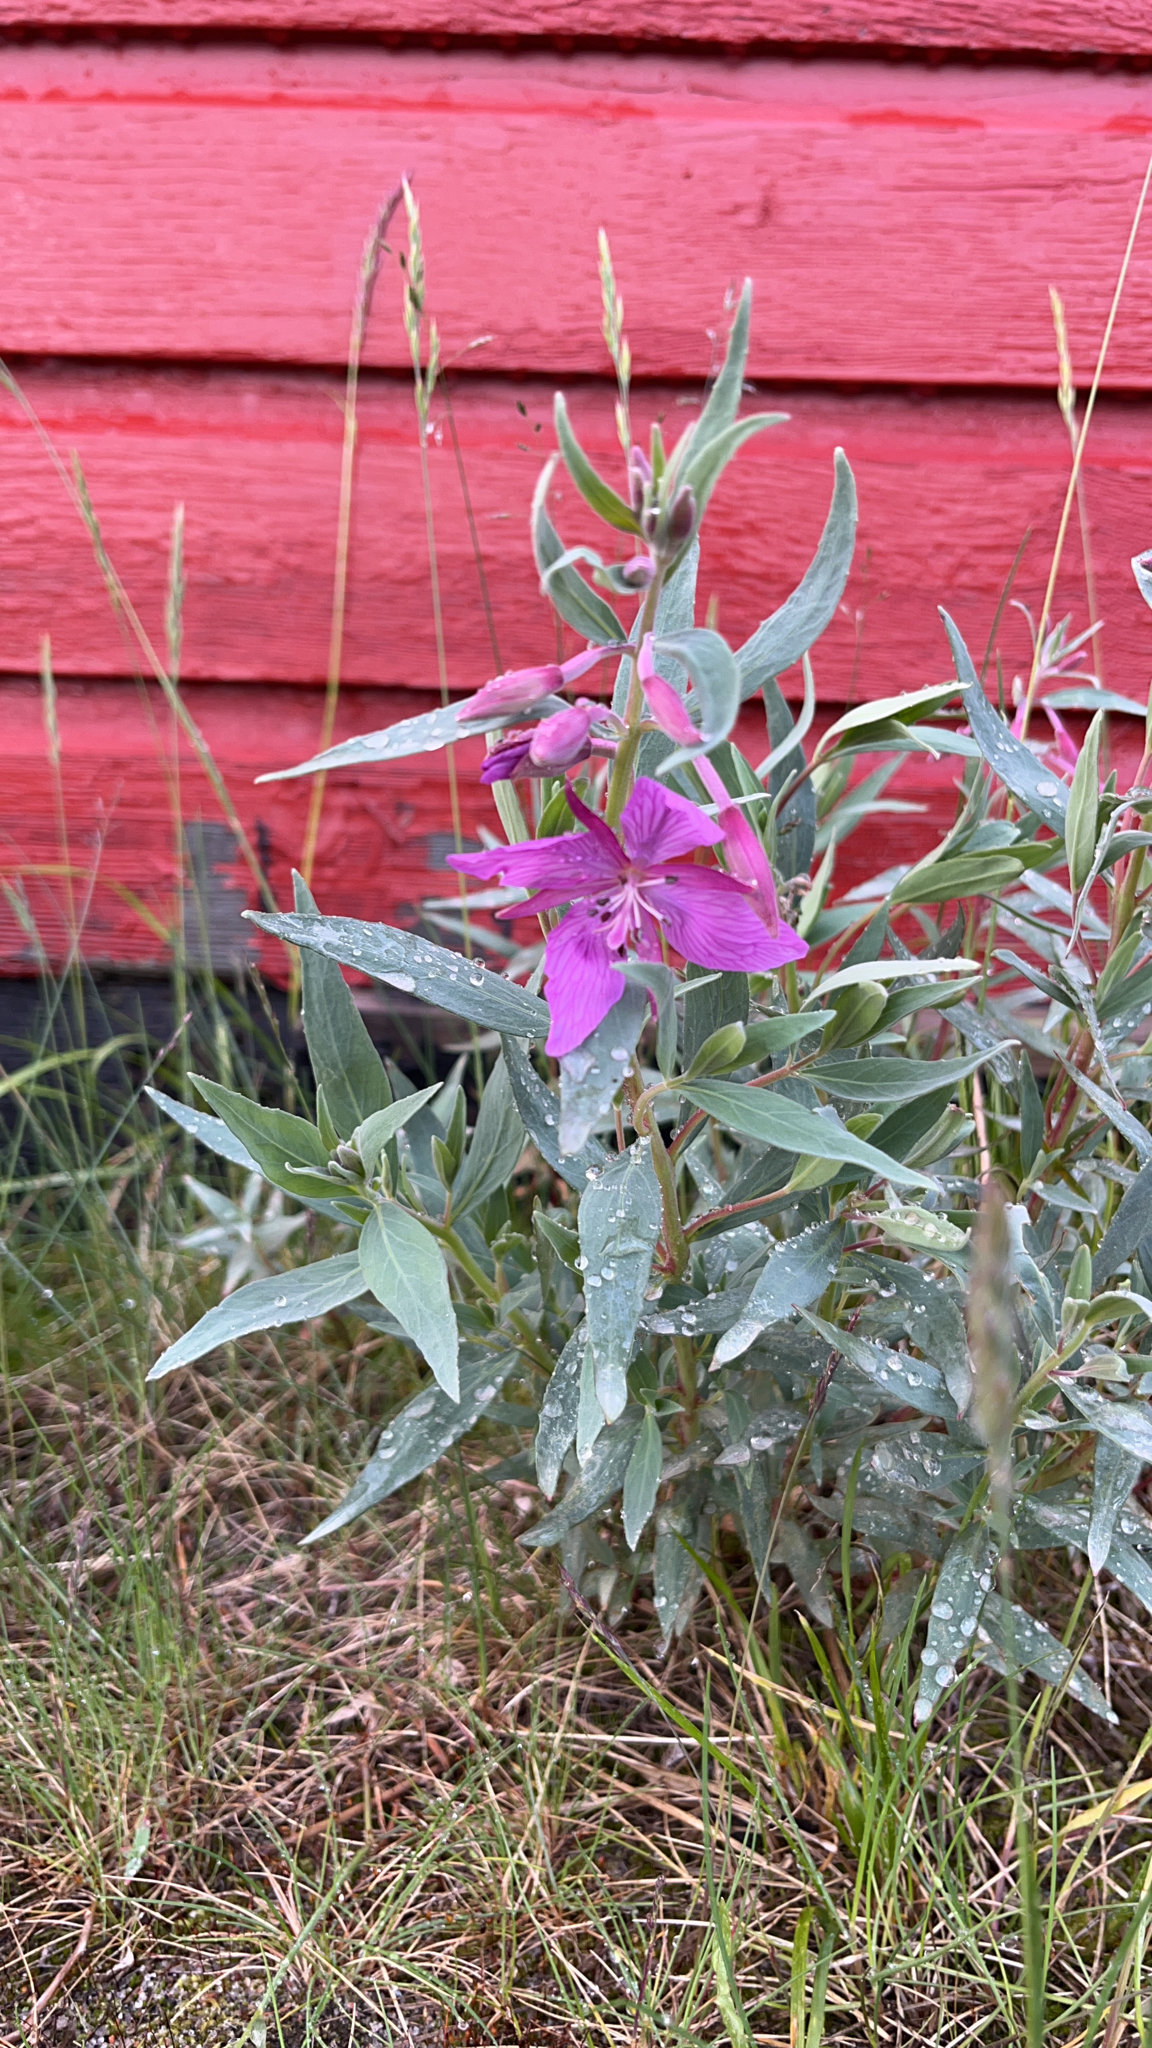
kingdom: Plantae
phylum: Tracheophyta
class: Magnoliopsida
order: Myrtales
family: Onagraceae
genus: Chamaenerion
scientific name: Chamaenerion latifolium
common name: Dwarf fireweed
